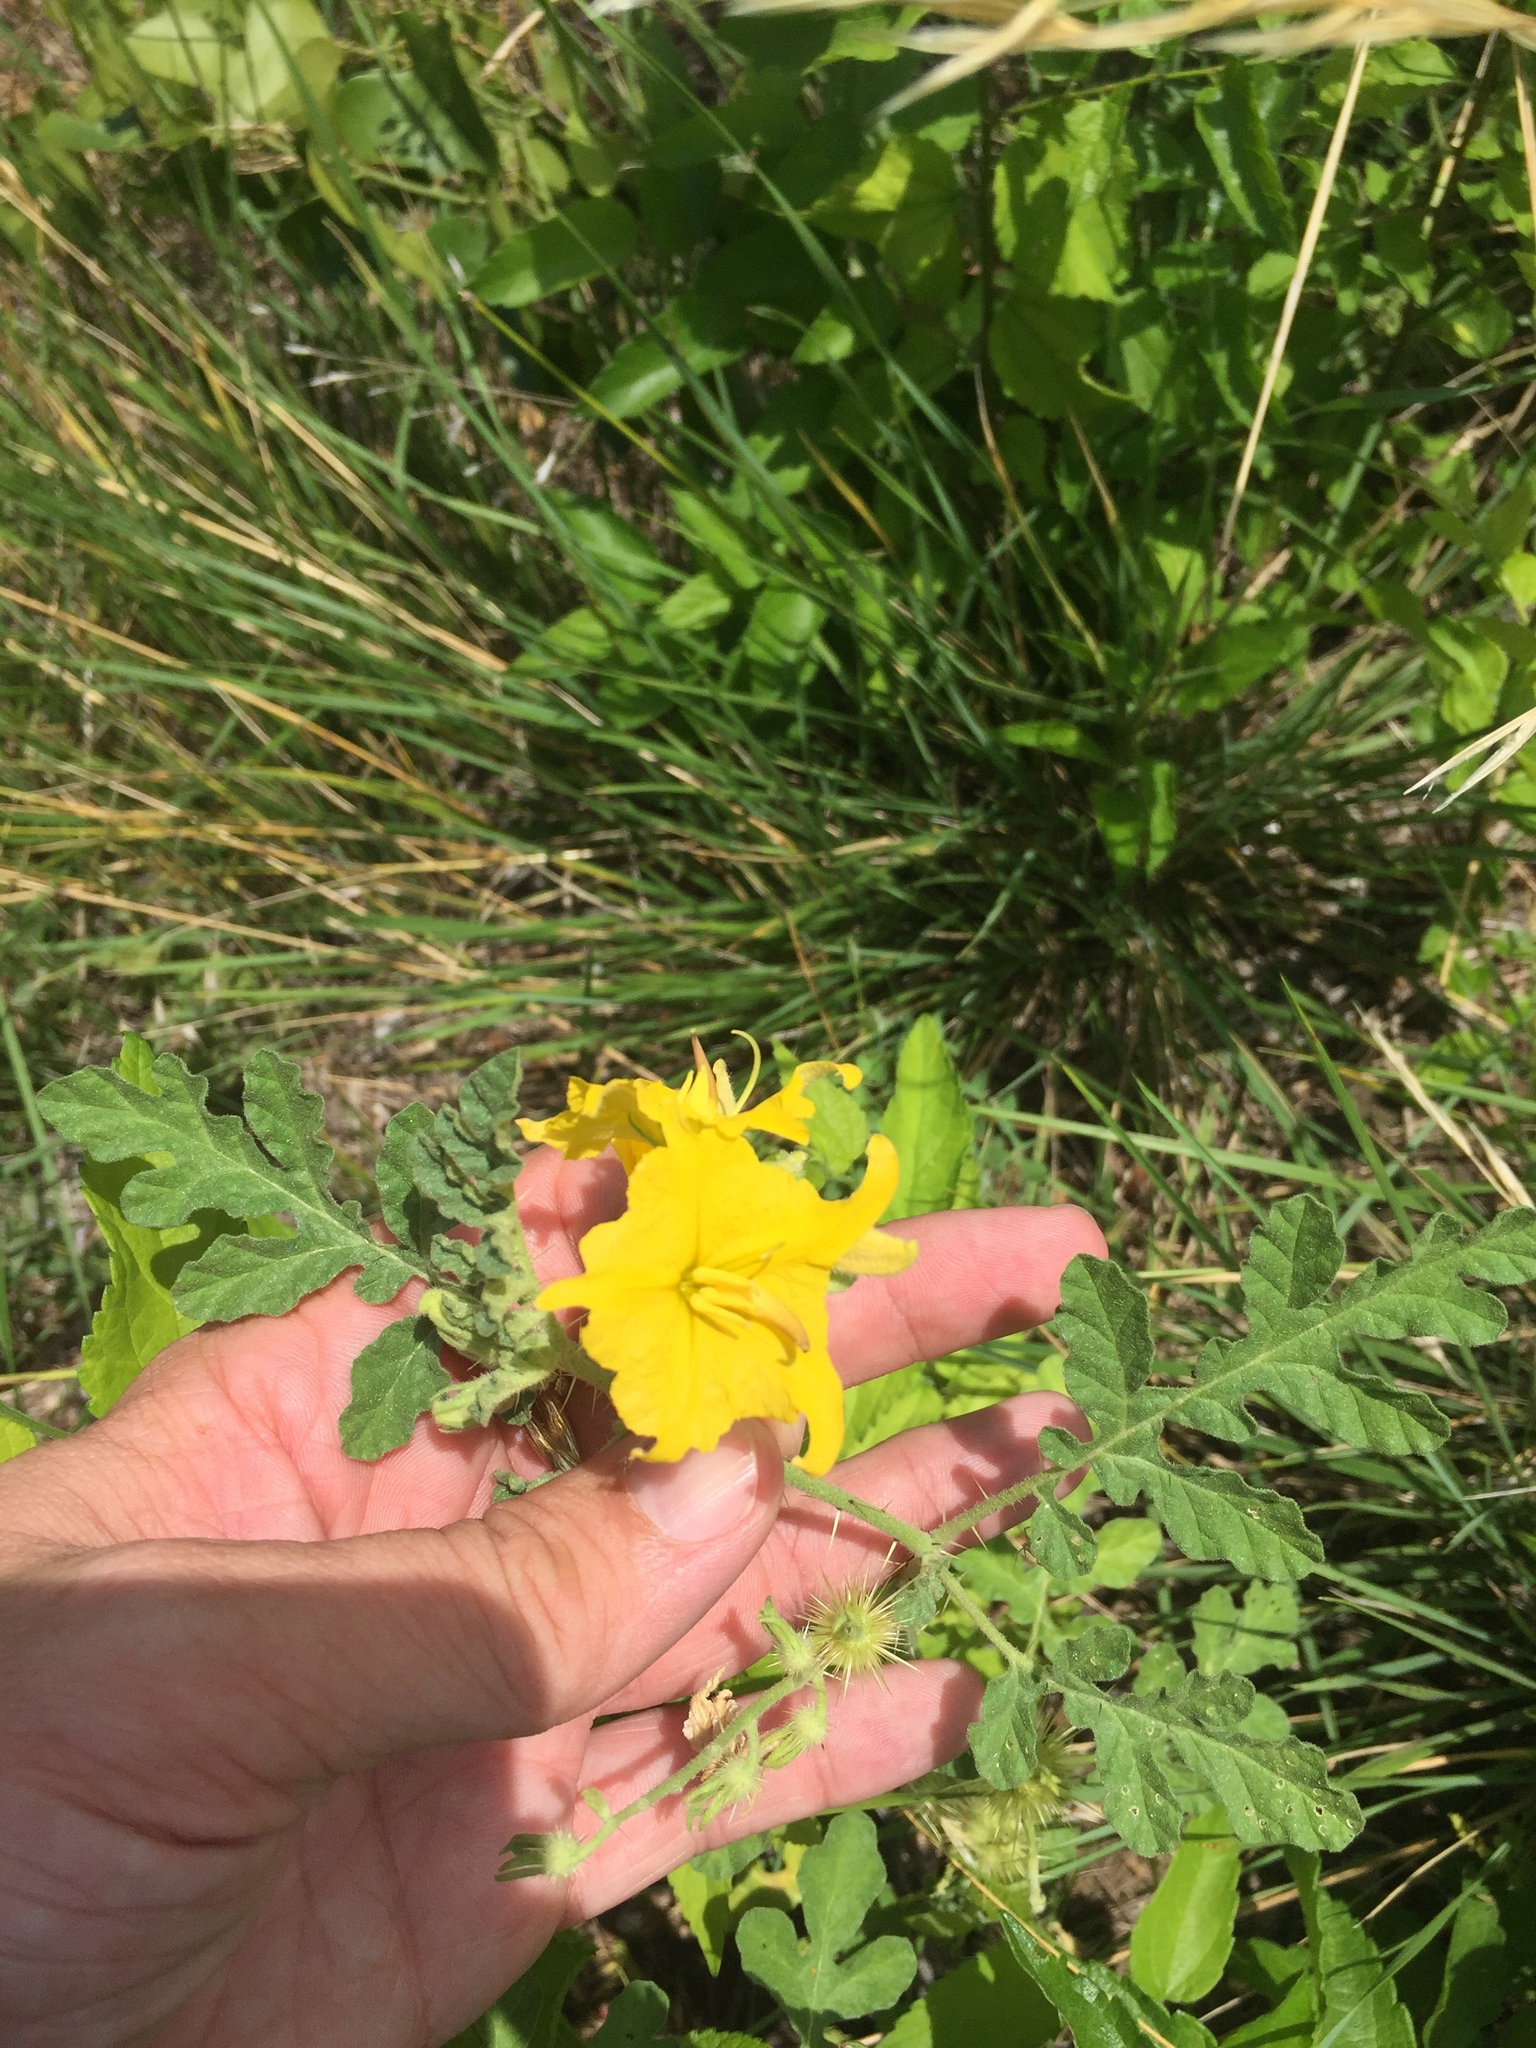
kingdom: Plantae
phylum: Tracheophyta
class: Magnoliopsida
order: Solanales
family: Solanaceae
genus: Solanum
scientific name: Solanum angustifolium
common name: Buffalobur nightshade
